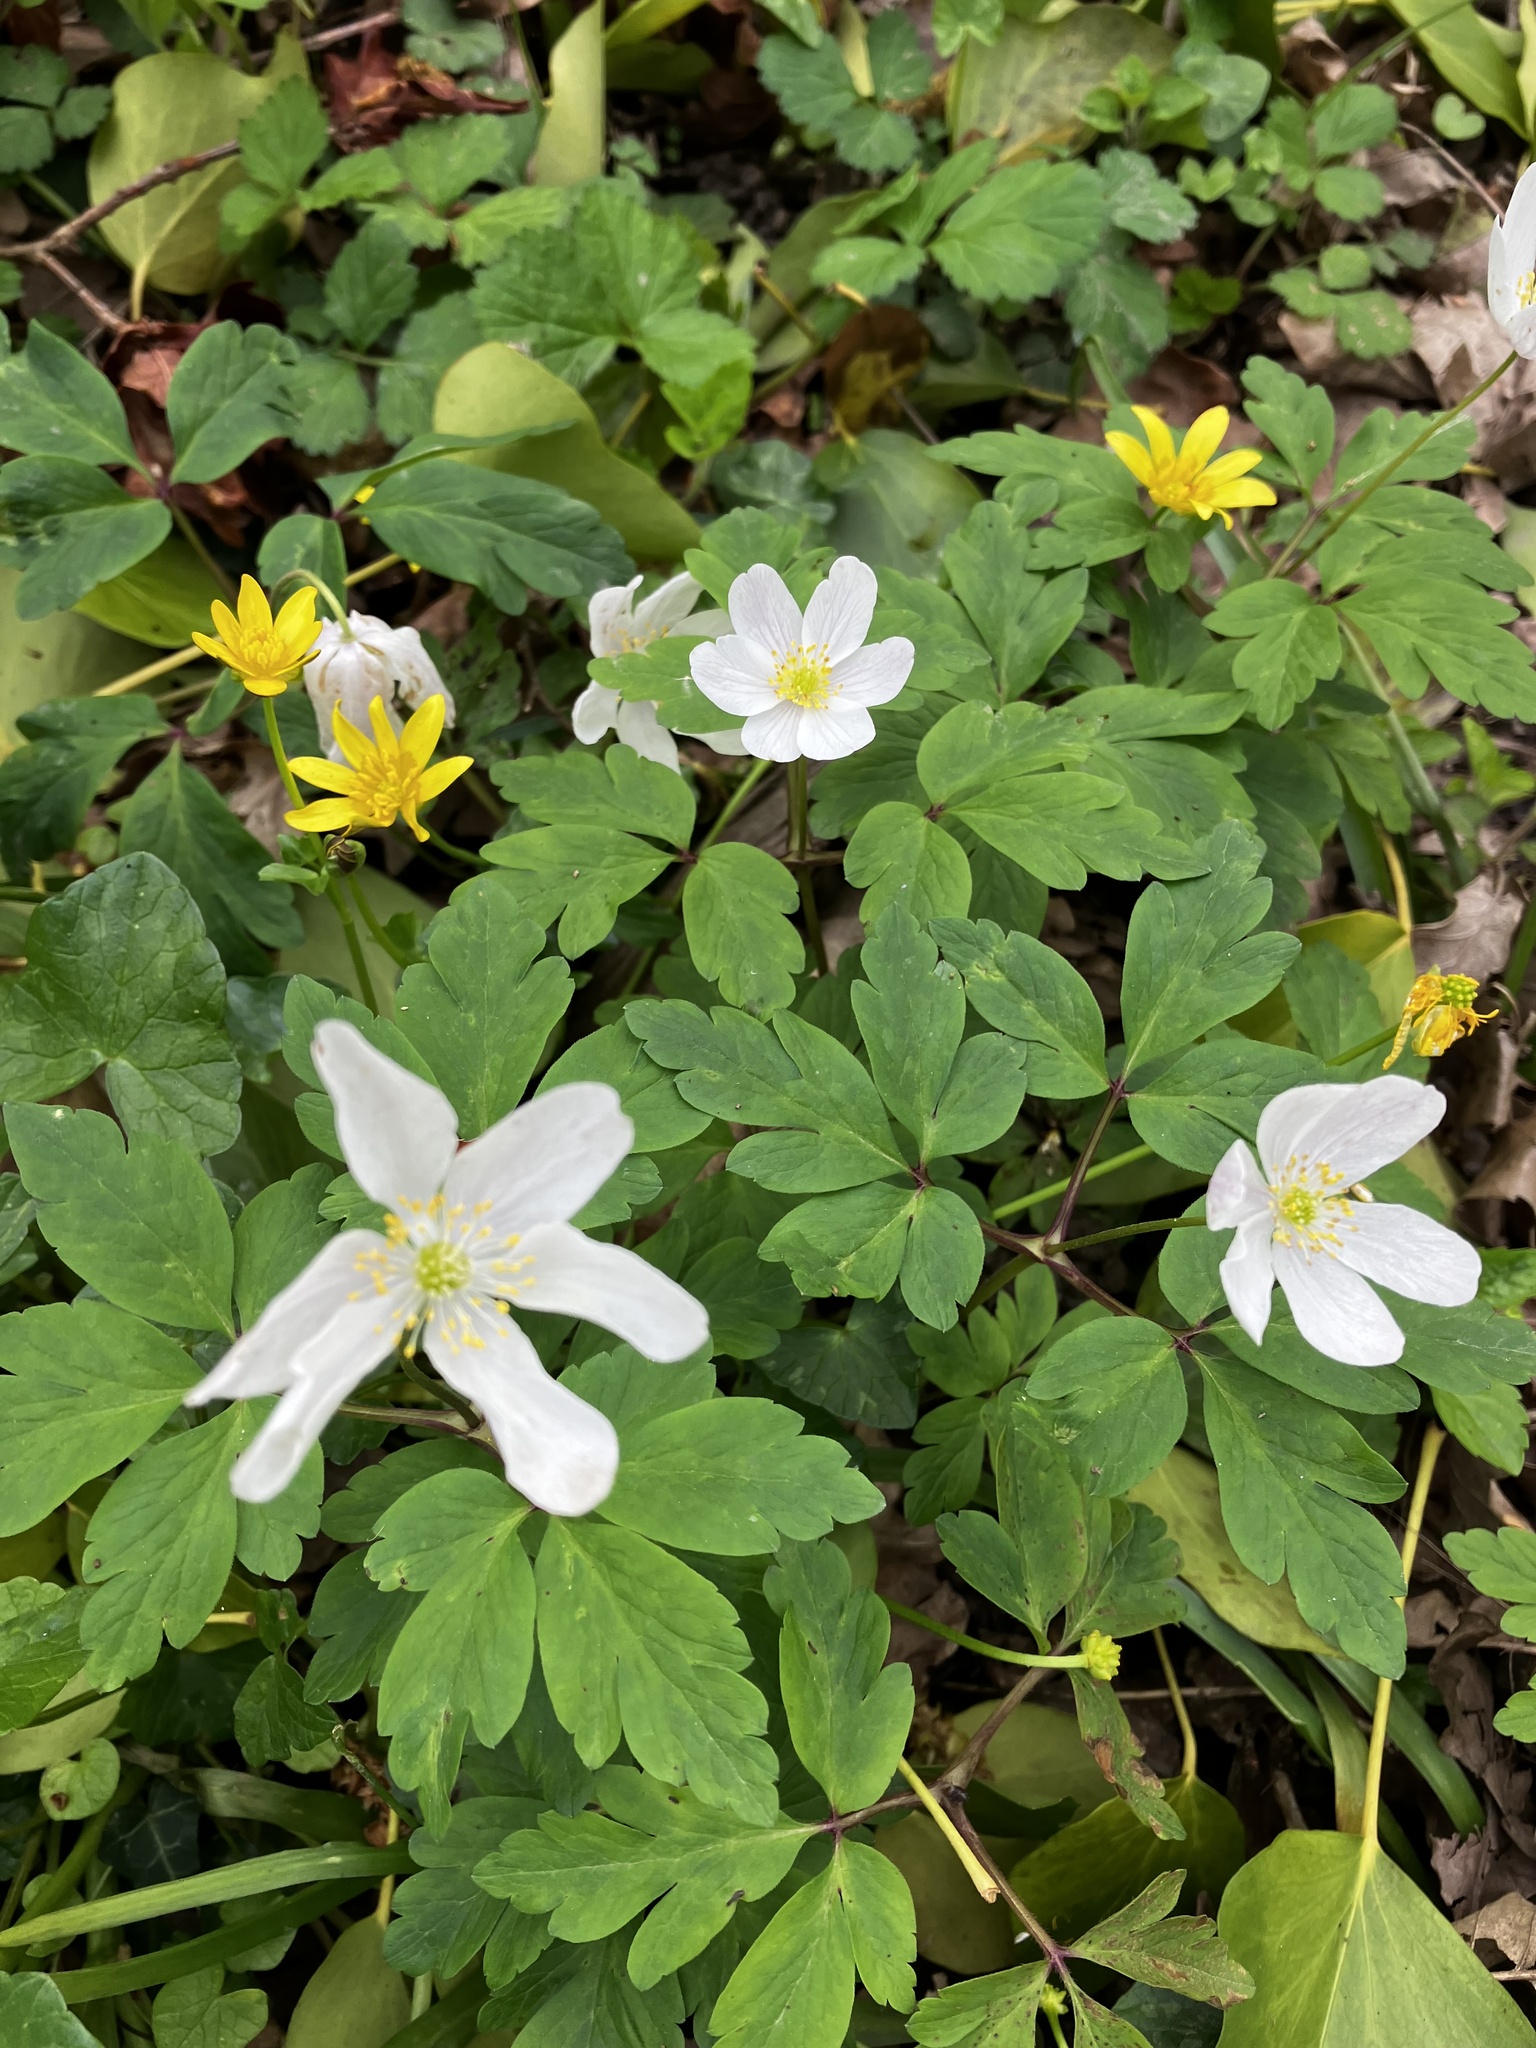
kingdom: Plantae
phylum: Tracheophyta
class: Magnoliopsida
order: Ranunculales
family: Ranunculaceae
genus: Anemone
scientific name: Anemone nemorosa
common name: Wood anemone
